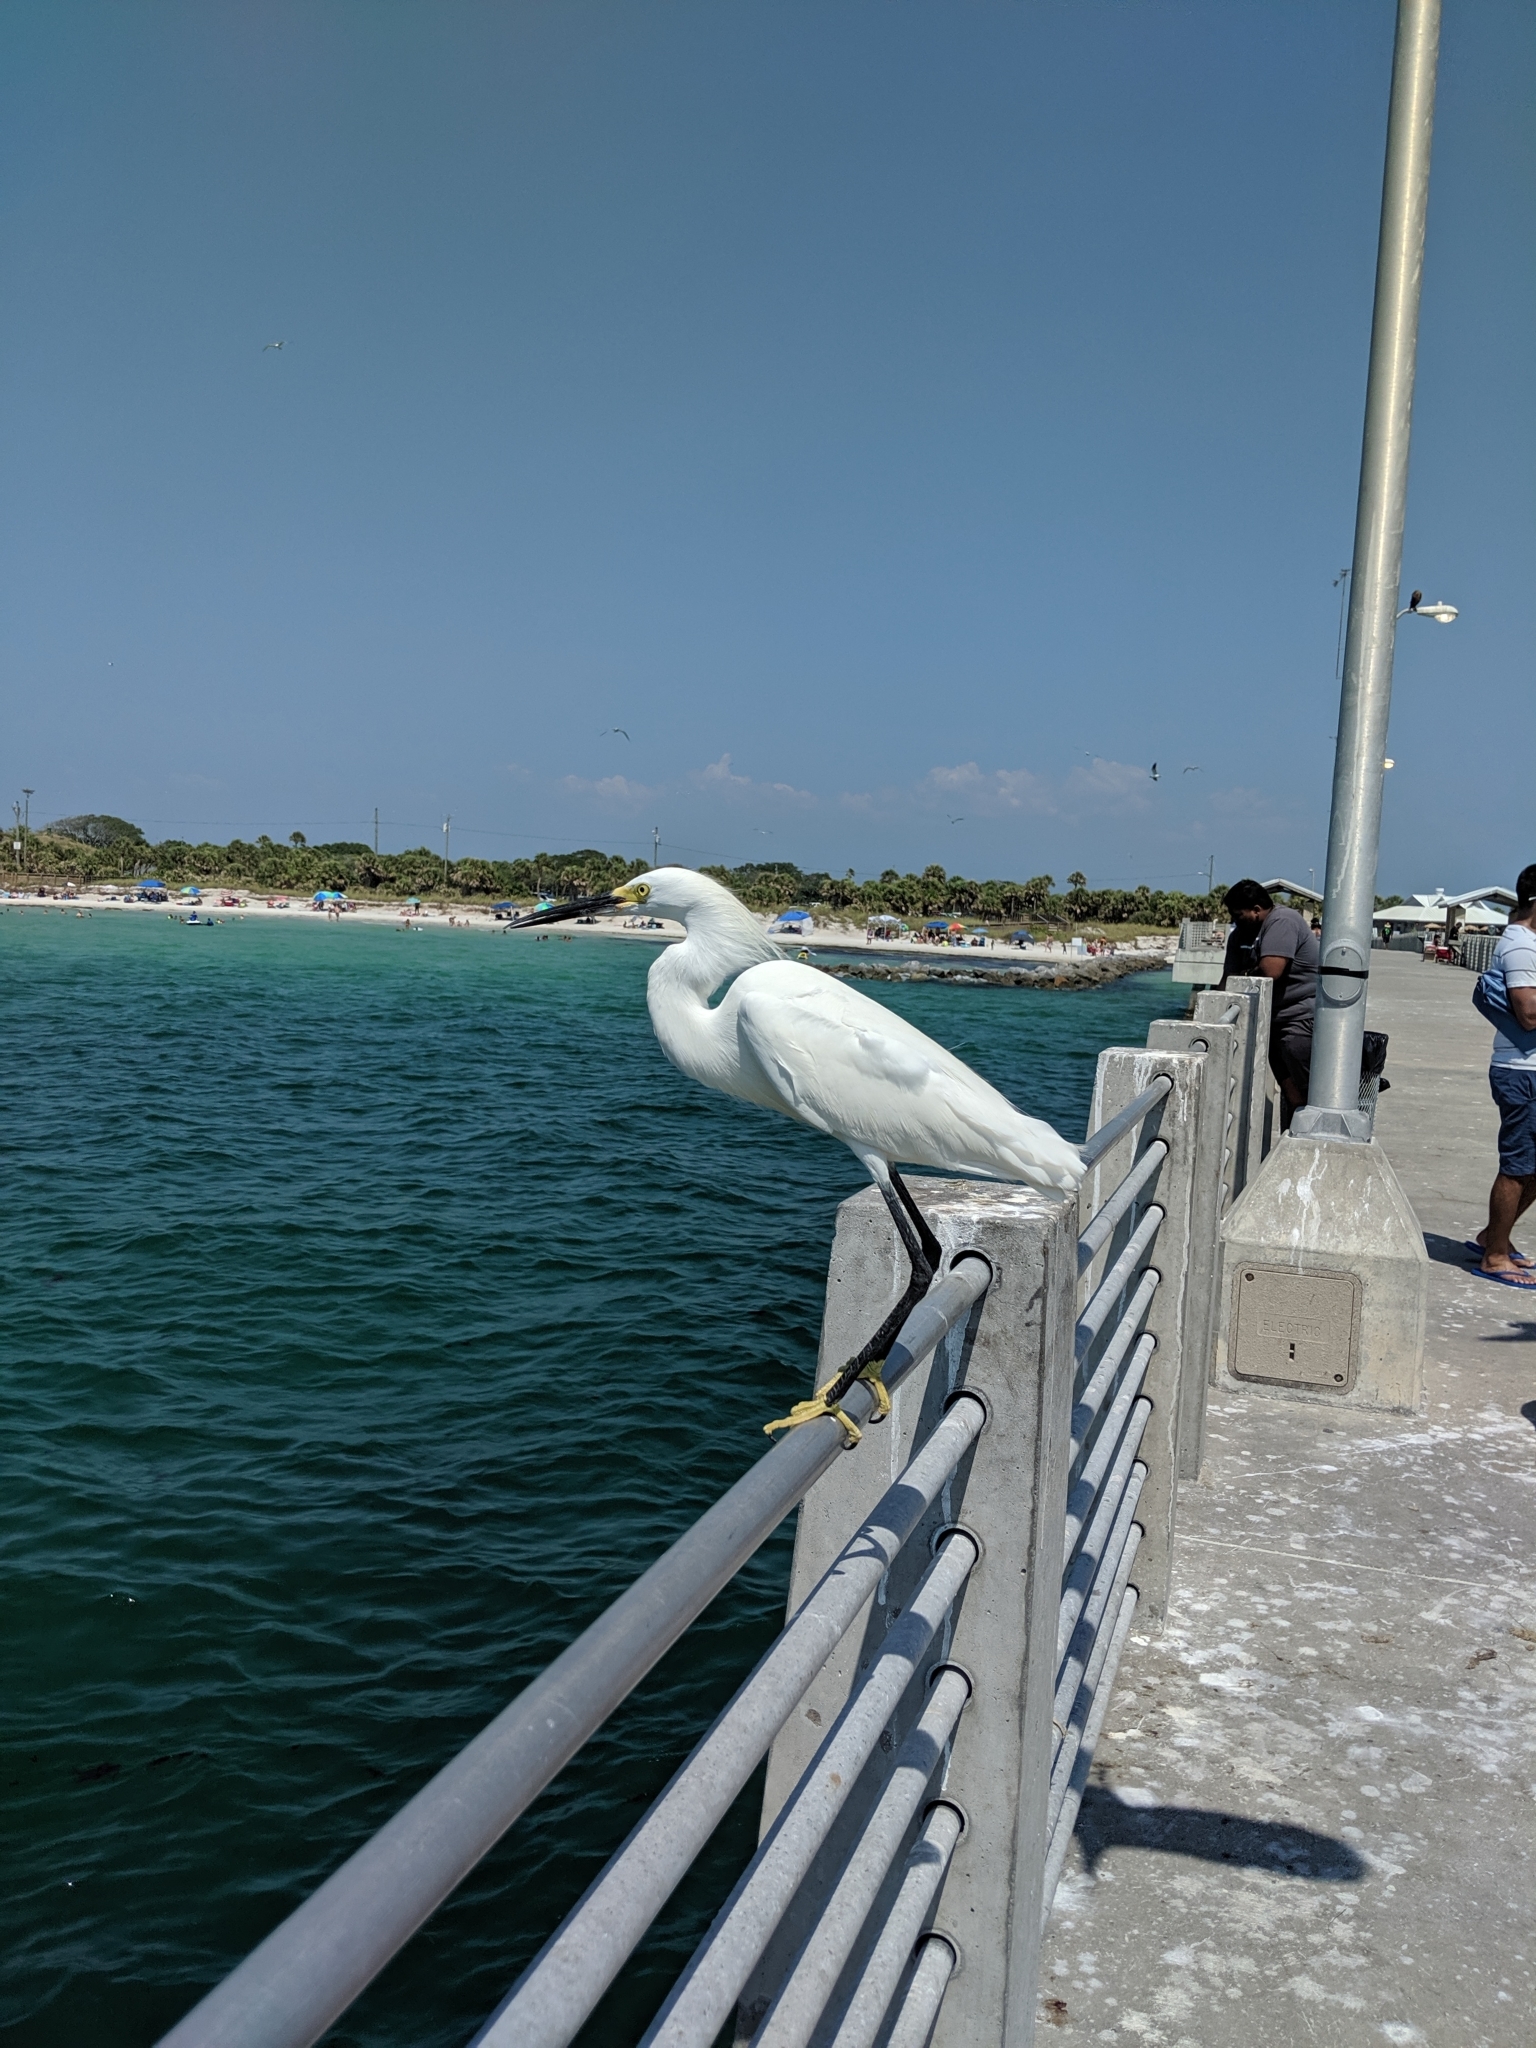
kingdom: Animalia
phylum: Chordata
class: Aves
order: Pelecaniformes
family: Ardeidae
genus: Egretta
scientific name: Egretta thula
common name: Snowy egret
